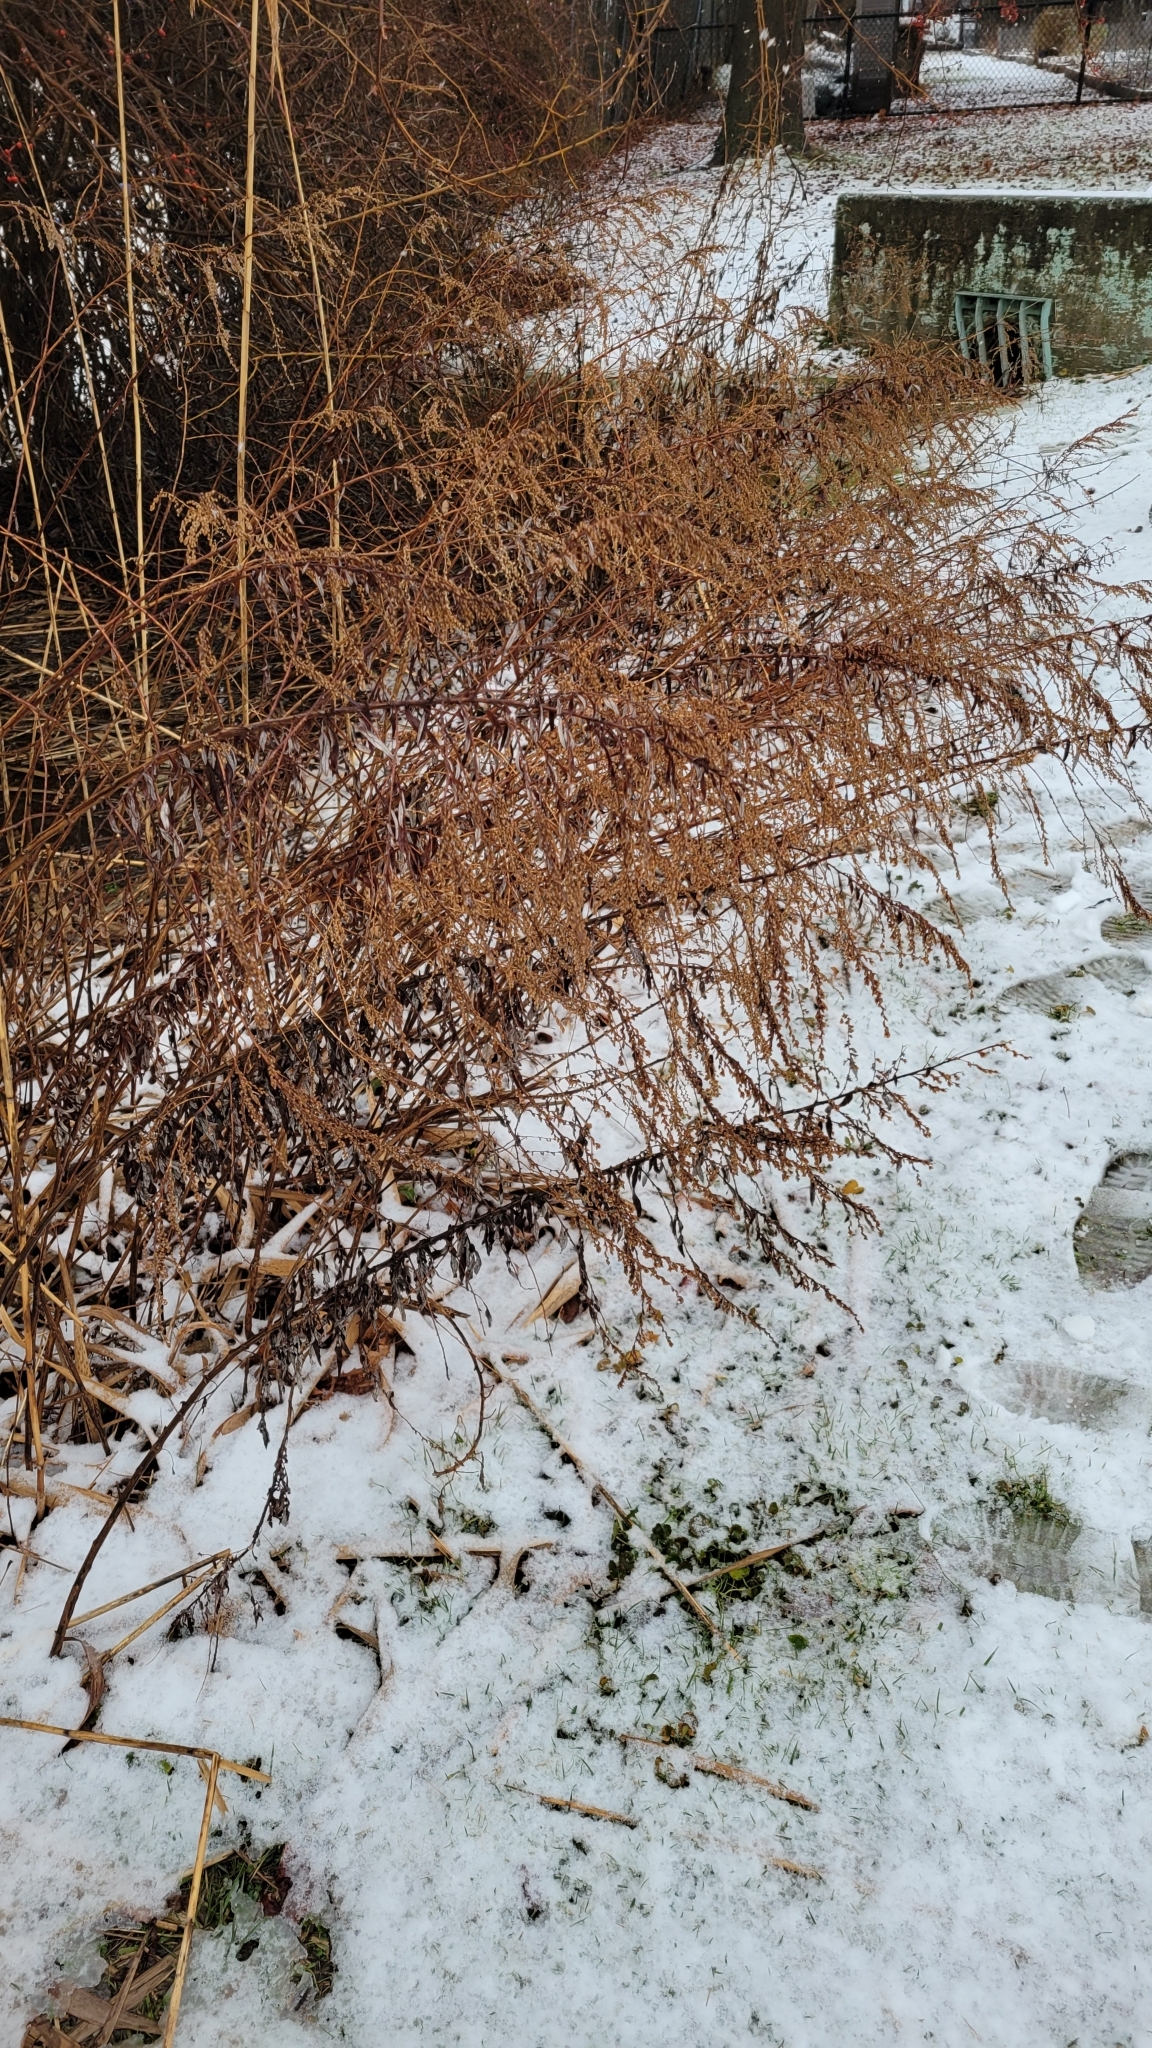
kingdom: Plantae
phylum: Tracheophyta
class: Magnoliopsida
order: Asterales
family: Asteraceae
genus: Artemisia
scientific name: Artemisia vulgaris
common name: Mugwort
